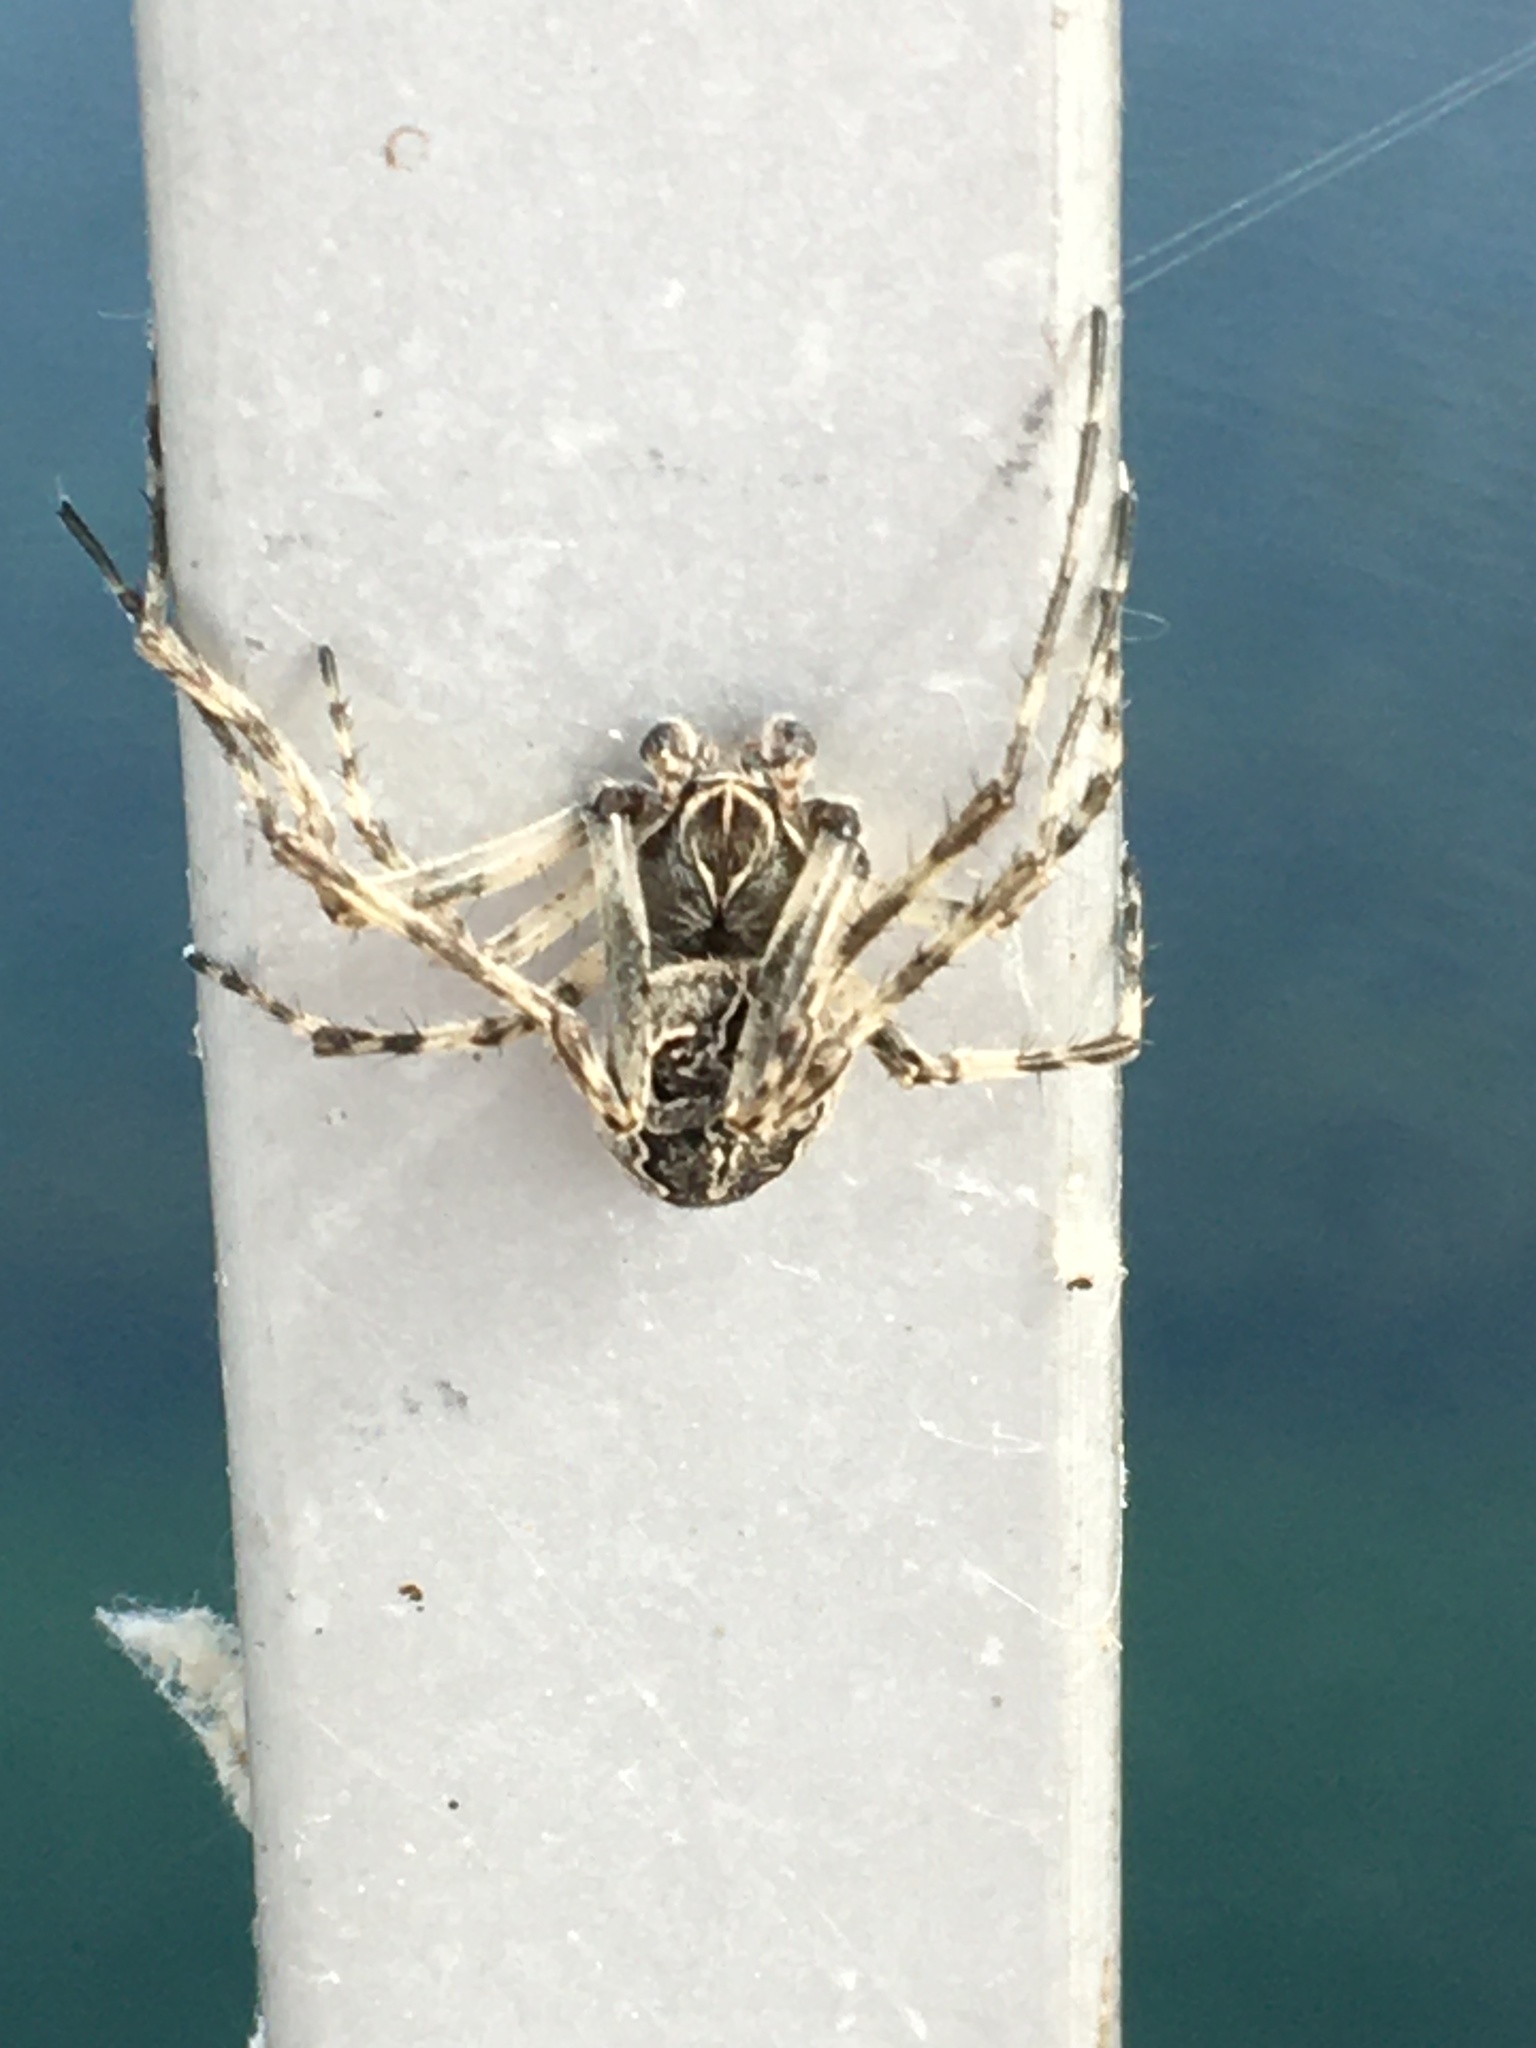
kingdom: Animalia
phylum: Arthropoda
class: Arachnida
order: Araneae
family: Araneidae
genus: Larinioides
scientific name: Larinioides sclopetarius
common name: Bridge orbweaver
